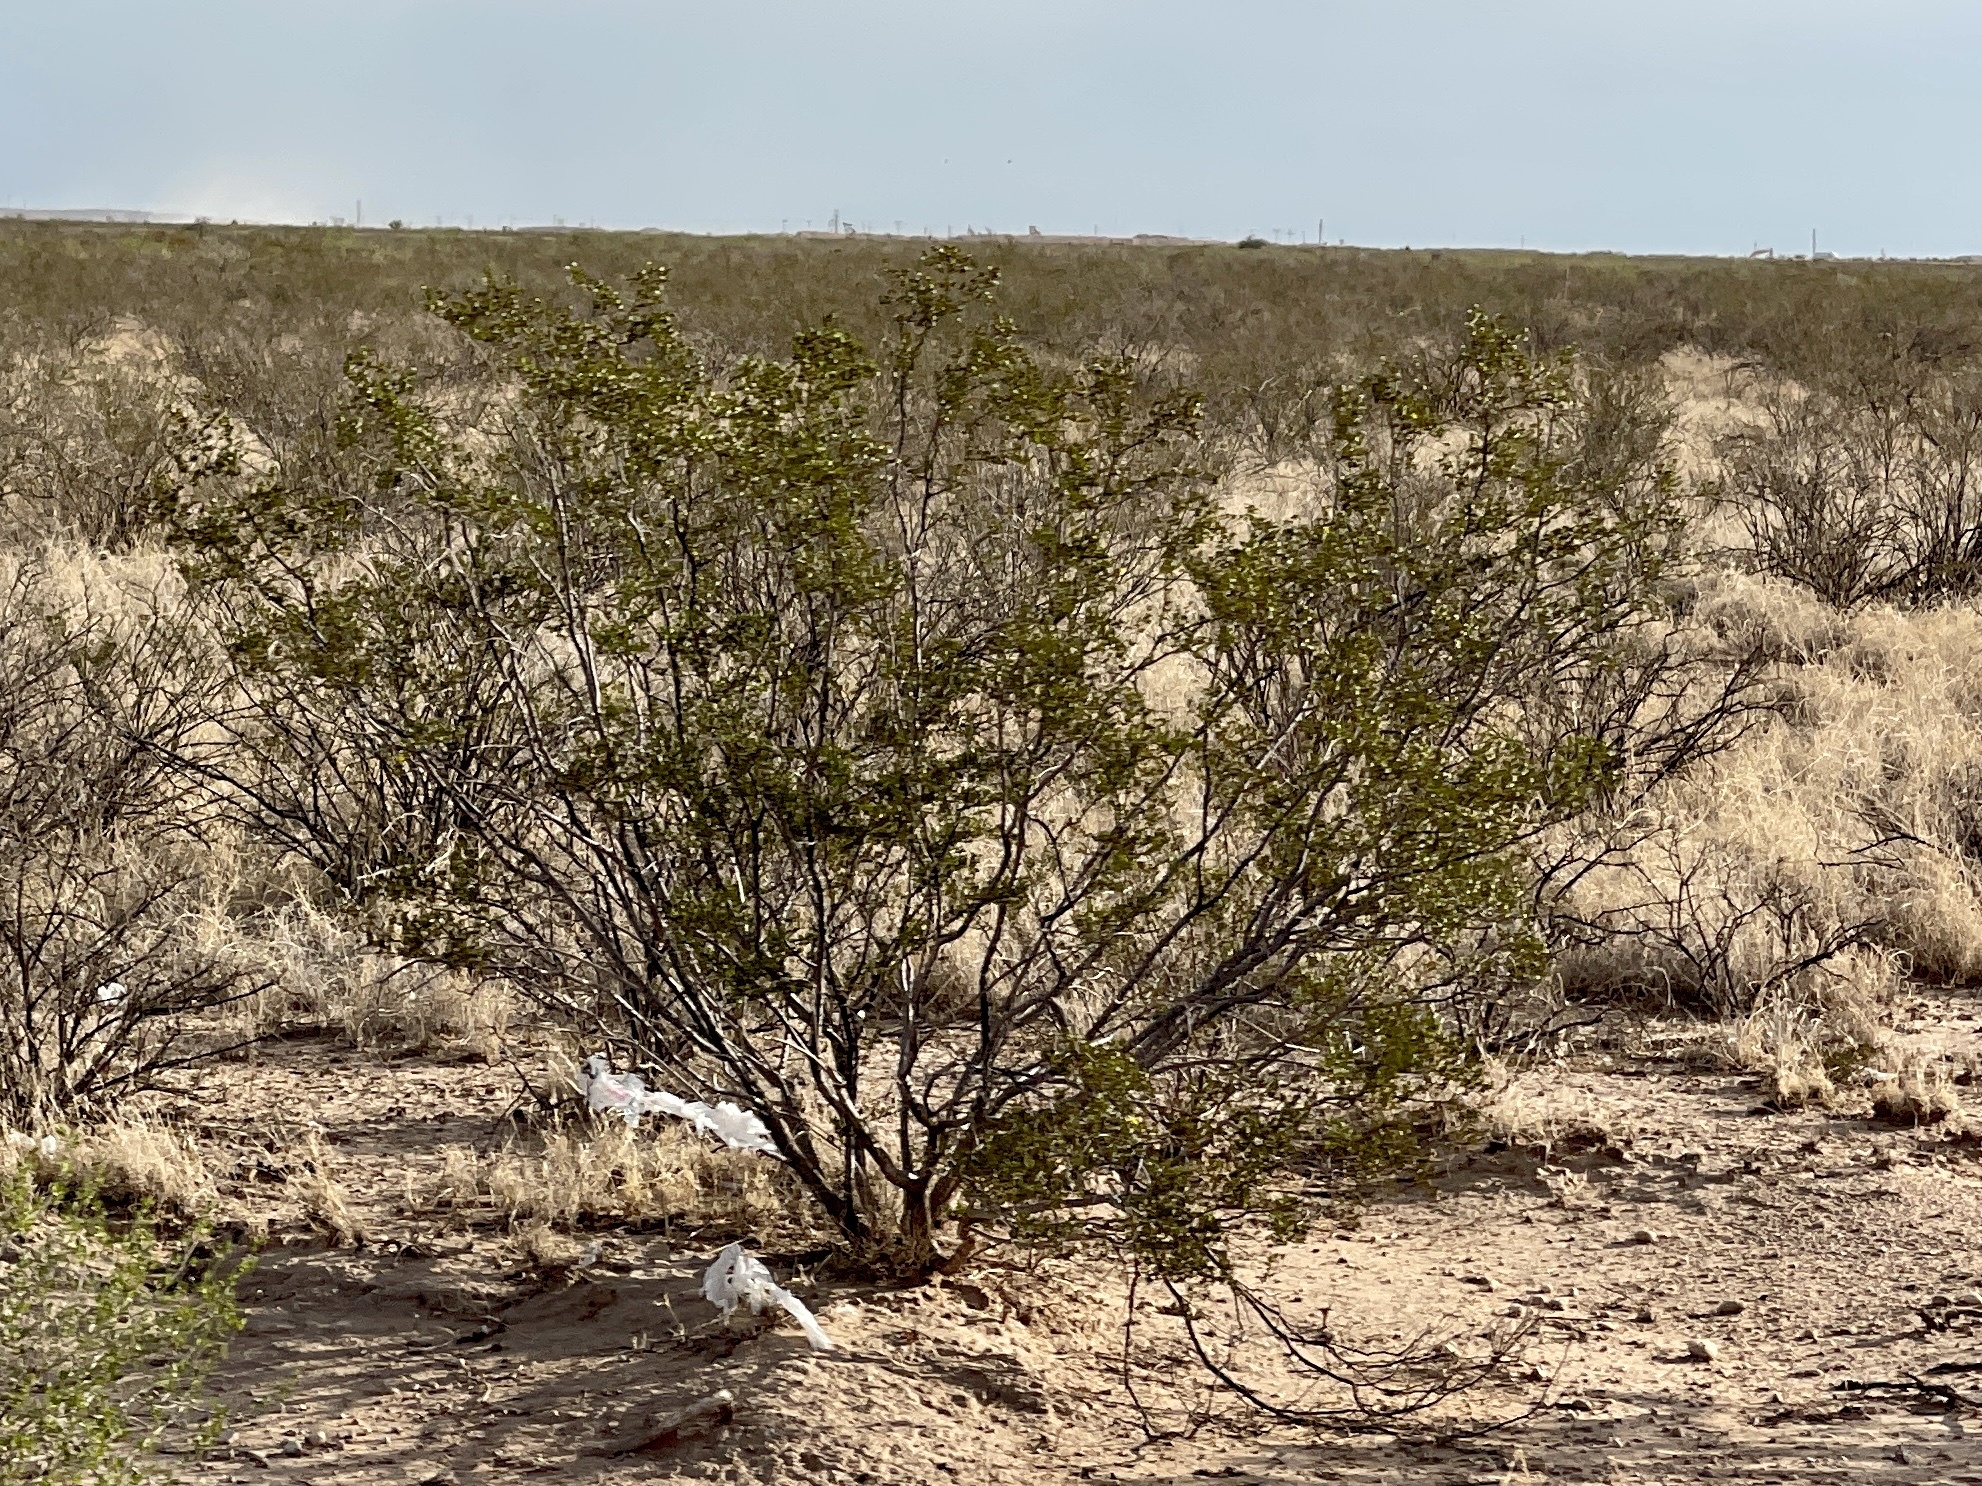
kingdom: Plantae
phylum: Tracheophyta
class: Magnoliopsida
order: Zygophyllales
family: Zygophyllaceae
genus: Larrea
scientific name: Larrea tridentata
